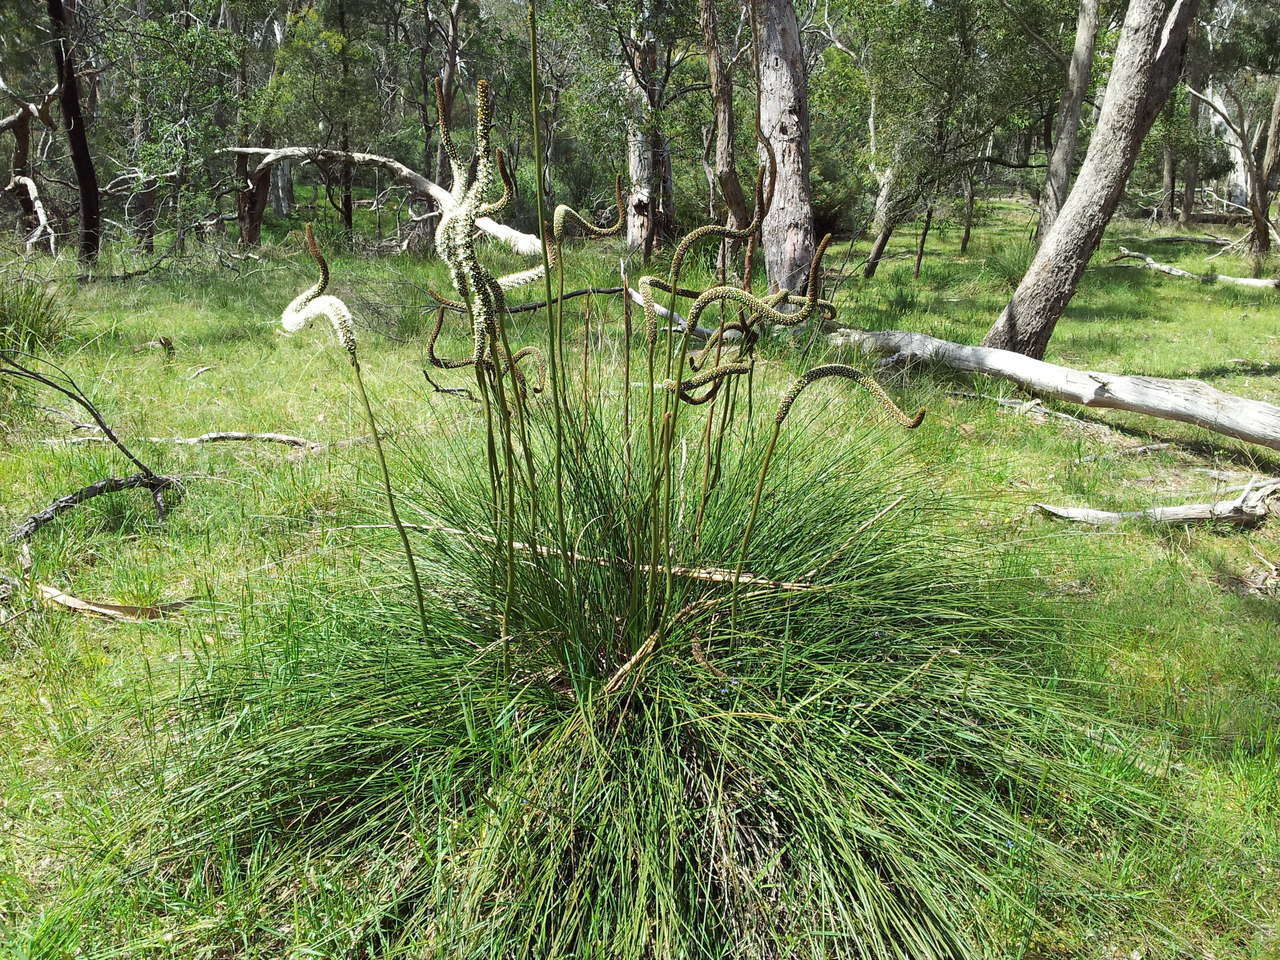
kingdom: Plantae
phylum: Tracheophyta
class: Liliopsida
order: Asparagales
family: Asphodelaceae
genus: Xanthorrhoea
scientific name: Xanthorrhoea minor
